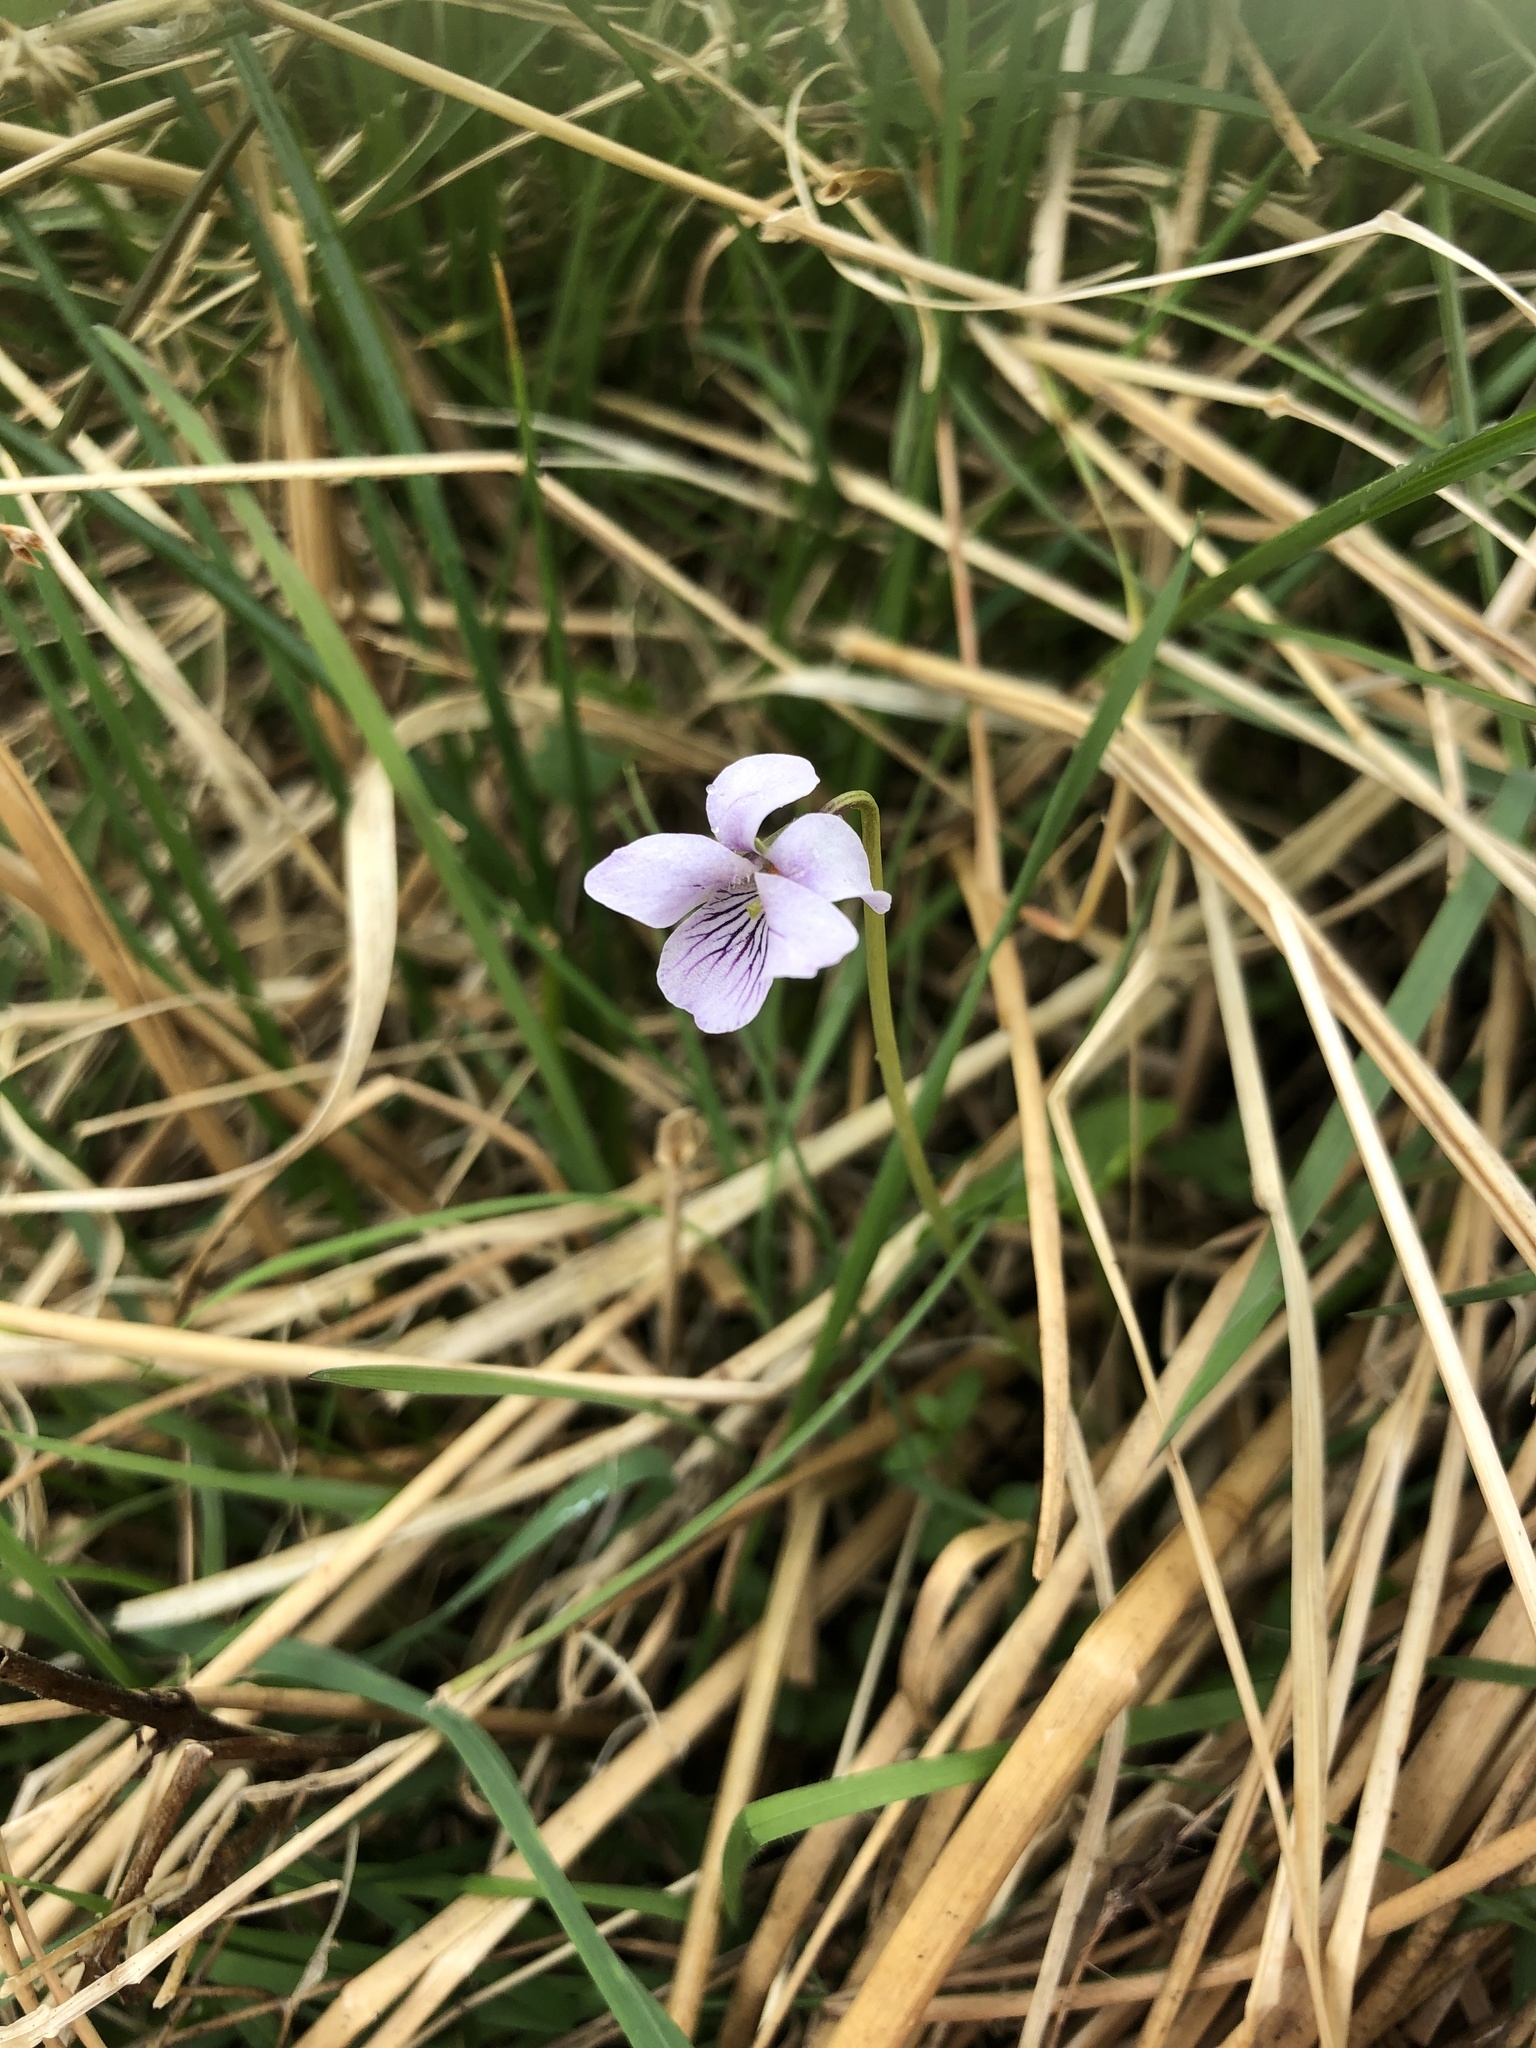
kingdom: Plantae
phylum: Tracheophyta
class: Magnoliopsida
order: Malpighiales
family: Violaceae
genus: Viola
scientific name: Viola palustris
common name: Marsh violet
